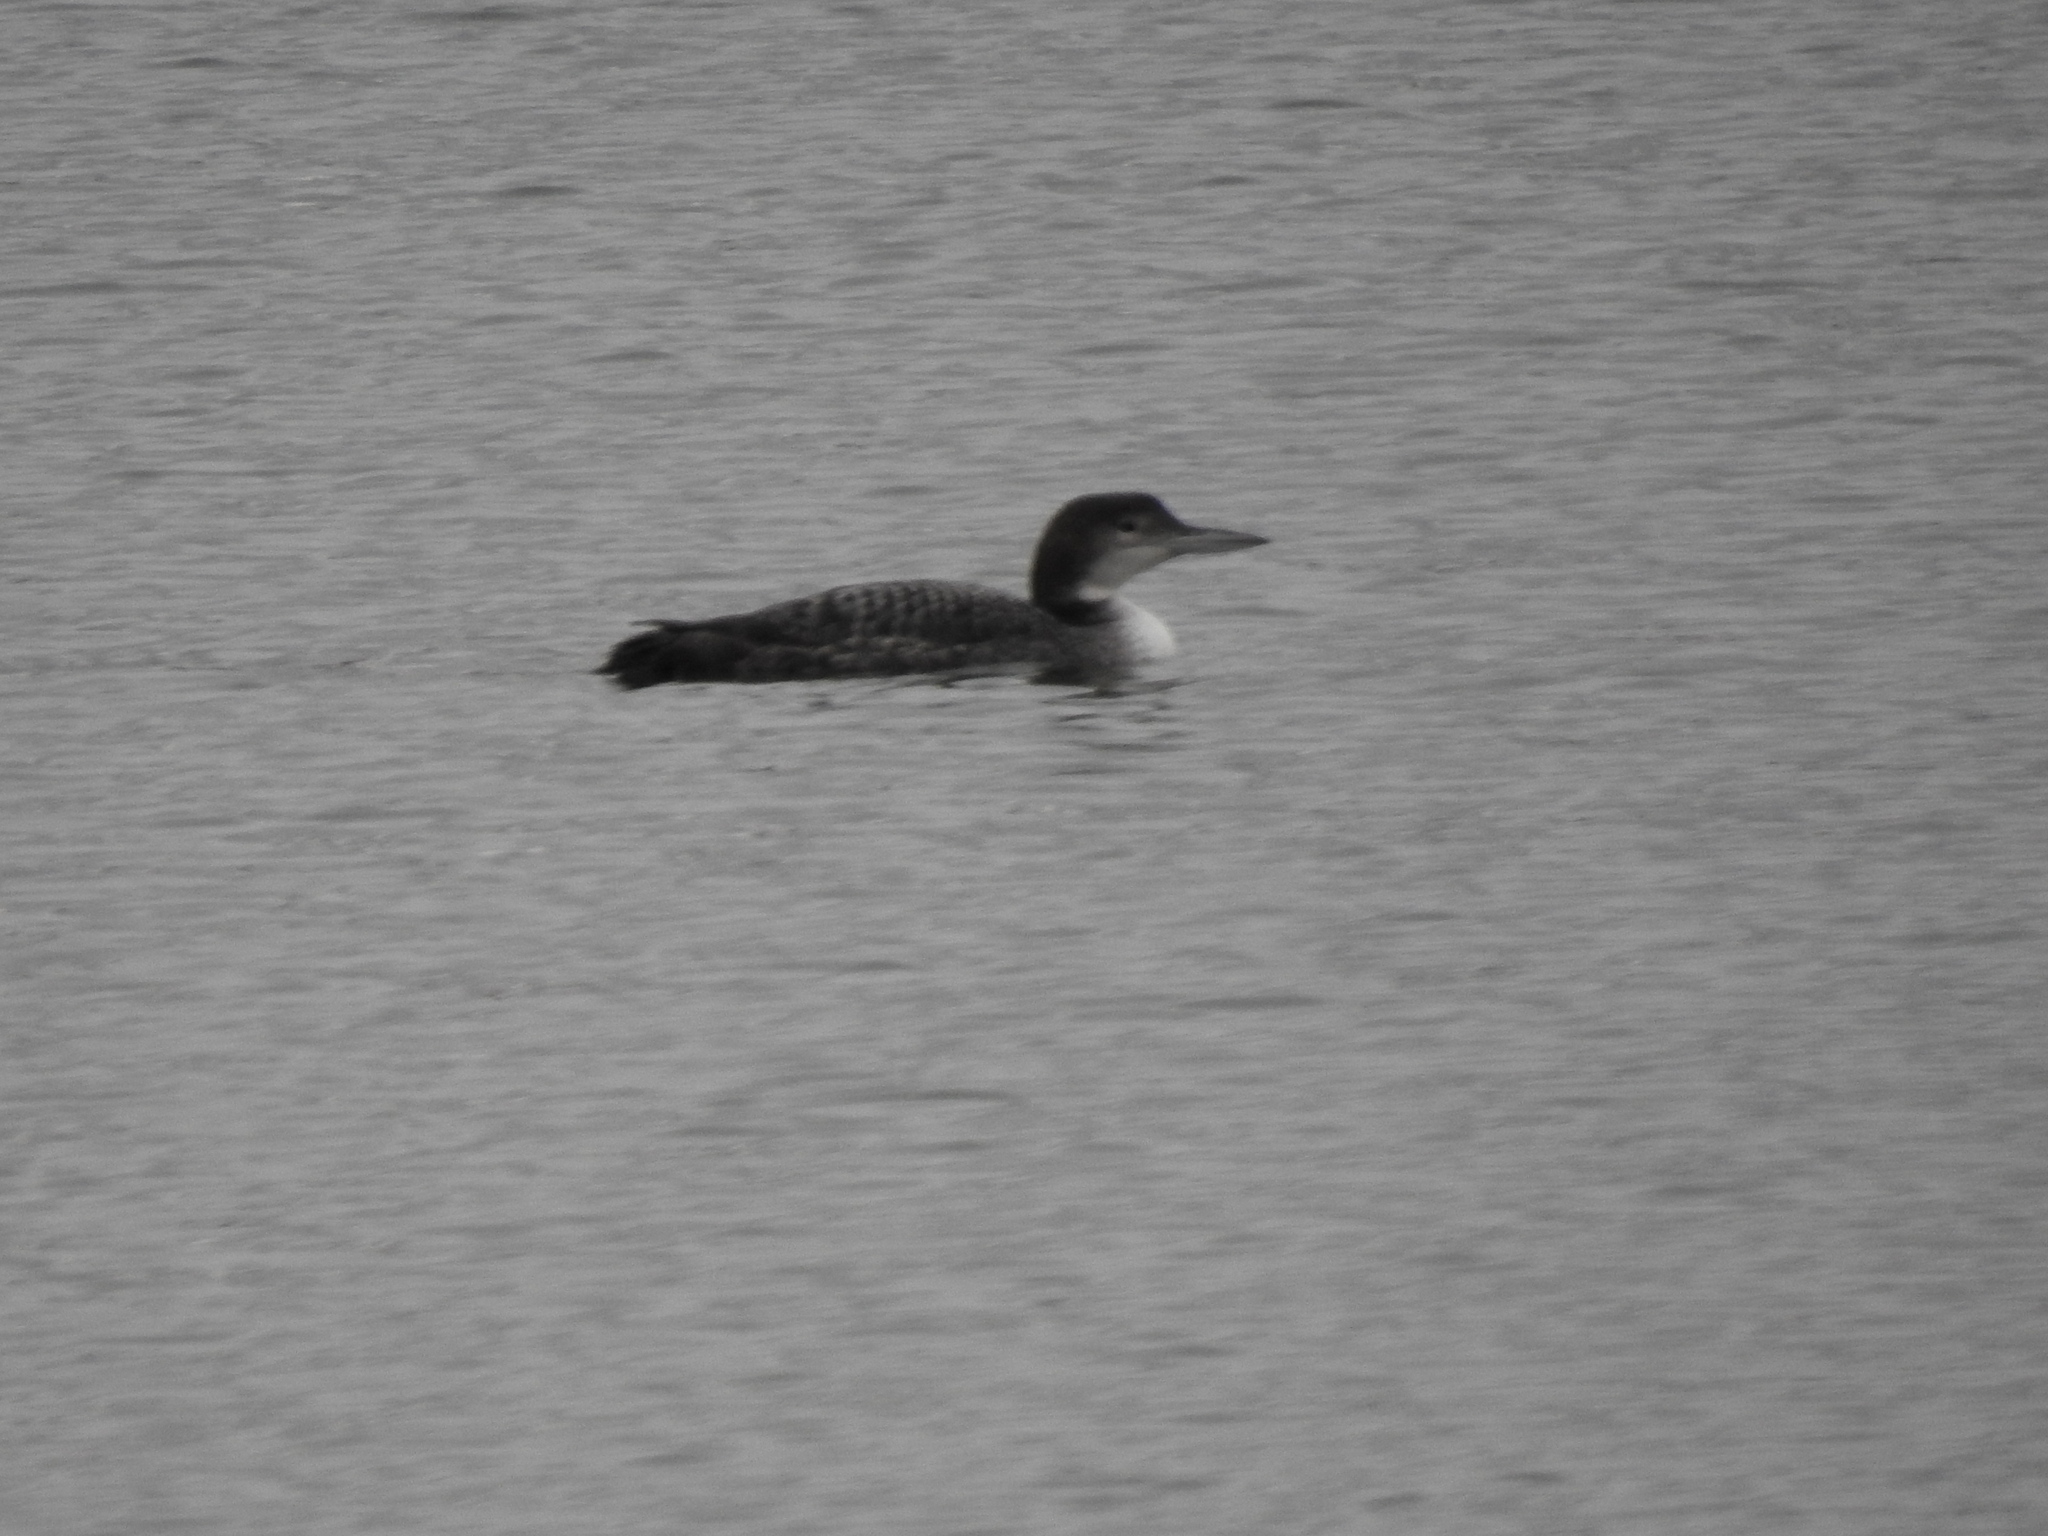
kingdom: Animalia
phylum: Chordata
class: Aves
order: Gaviiformes
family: Gaviidae
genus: Gavia
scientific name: Gavia immer
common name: Common loon
